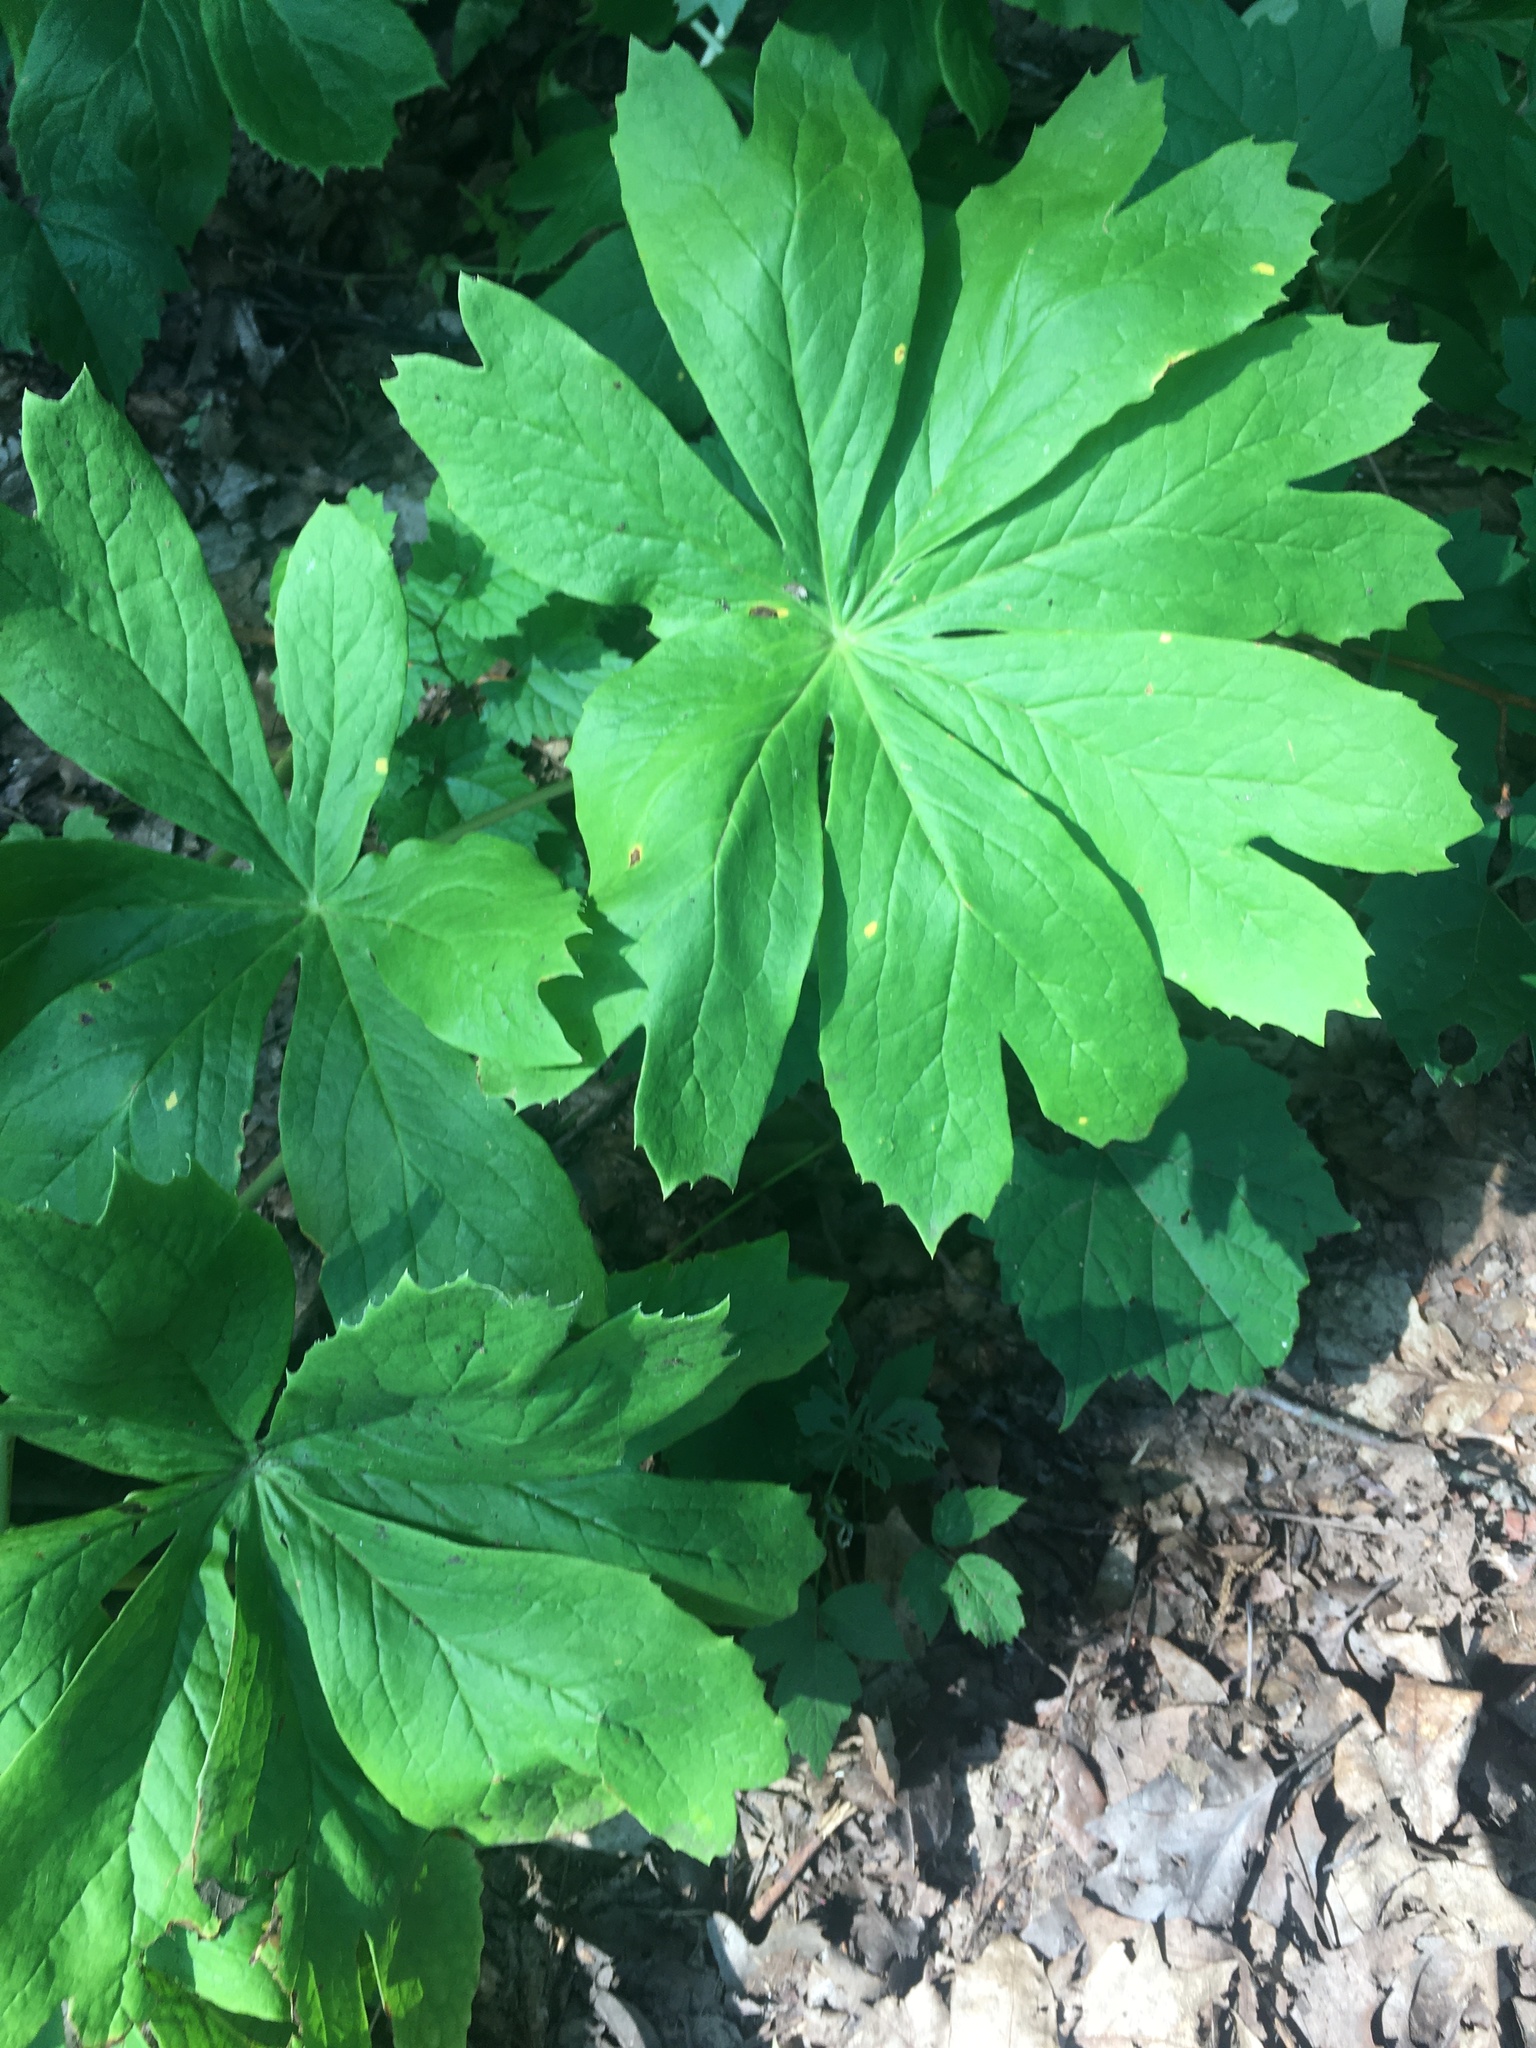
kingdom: Plantae
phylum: Tracheophyta
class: Magnoliopsida
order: Ranunculales
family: Berberidaceae
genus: Podophyllum
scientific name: Podophyllum peltatum
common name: Wild mandrake
